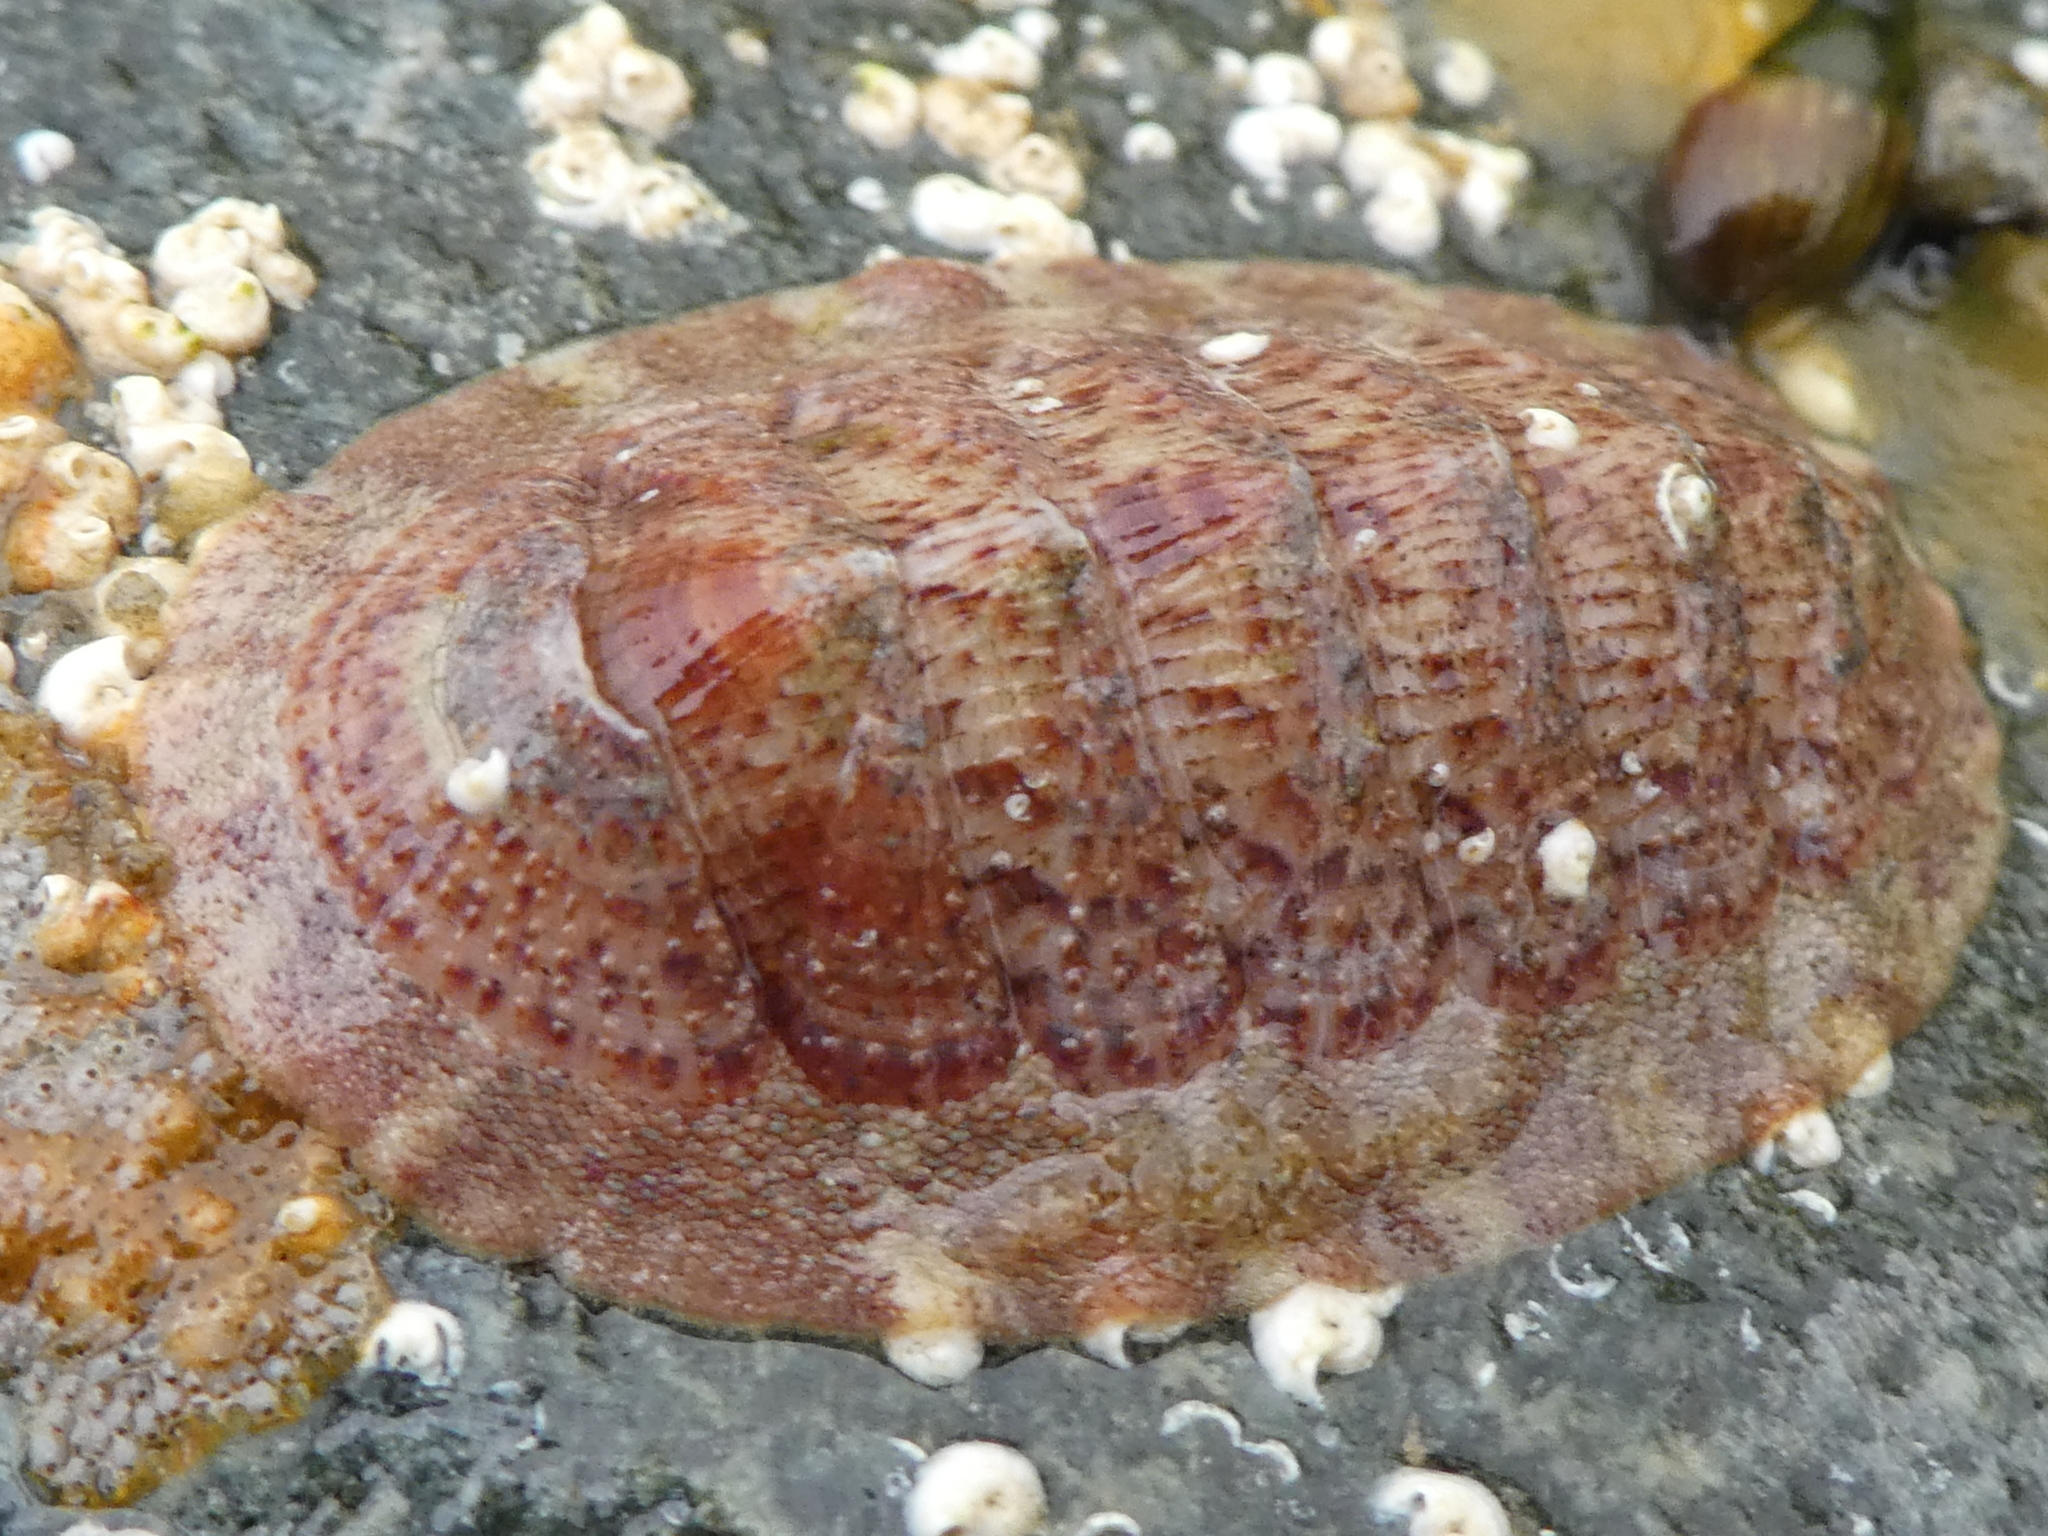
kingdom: Animalia
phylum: Mollusca
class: Polyplacophora
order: Chitonida
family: Ischnochitonidae
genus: Lepidozona
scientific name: Lepidozona mertensii
